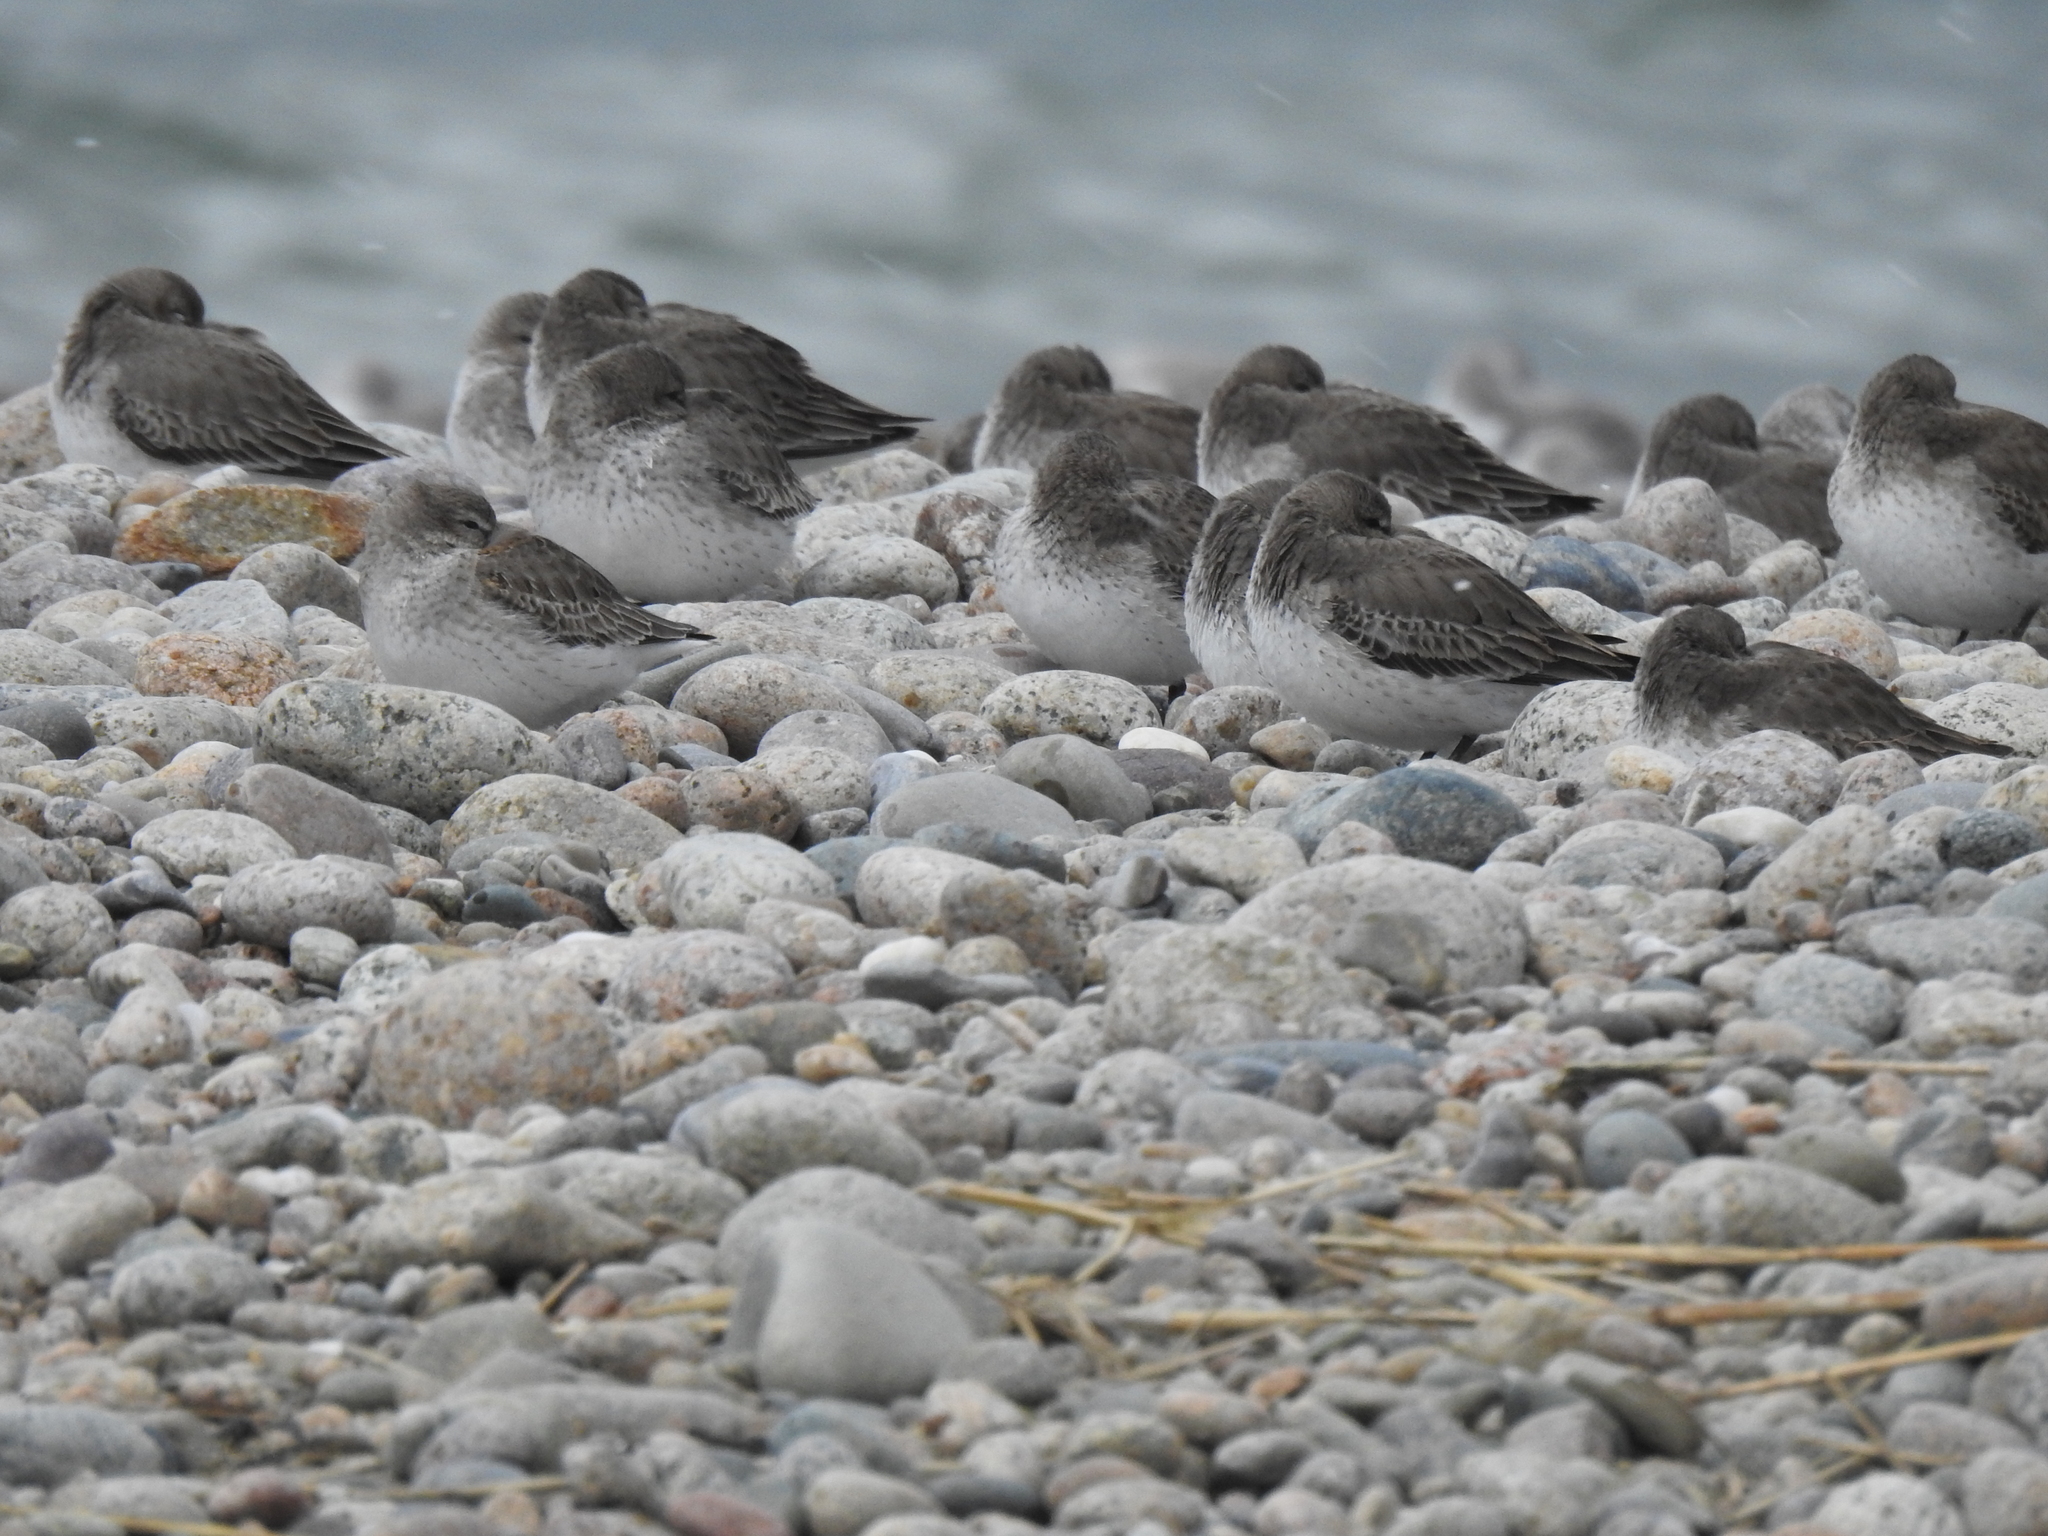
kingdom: Animalia
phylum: Chordata
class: Aves
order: Charadriiformes
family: Scolopacidae
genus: Calidris
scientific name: Calidris alpina
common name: Dunlin
